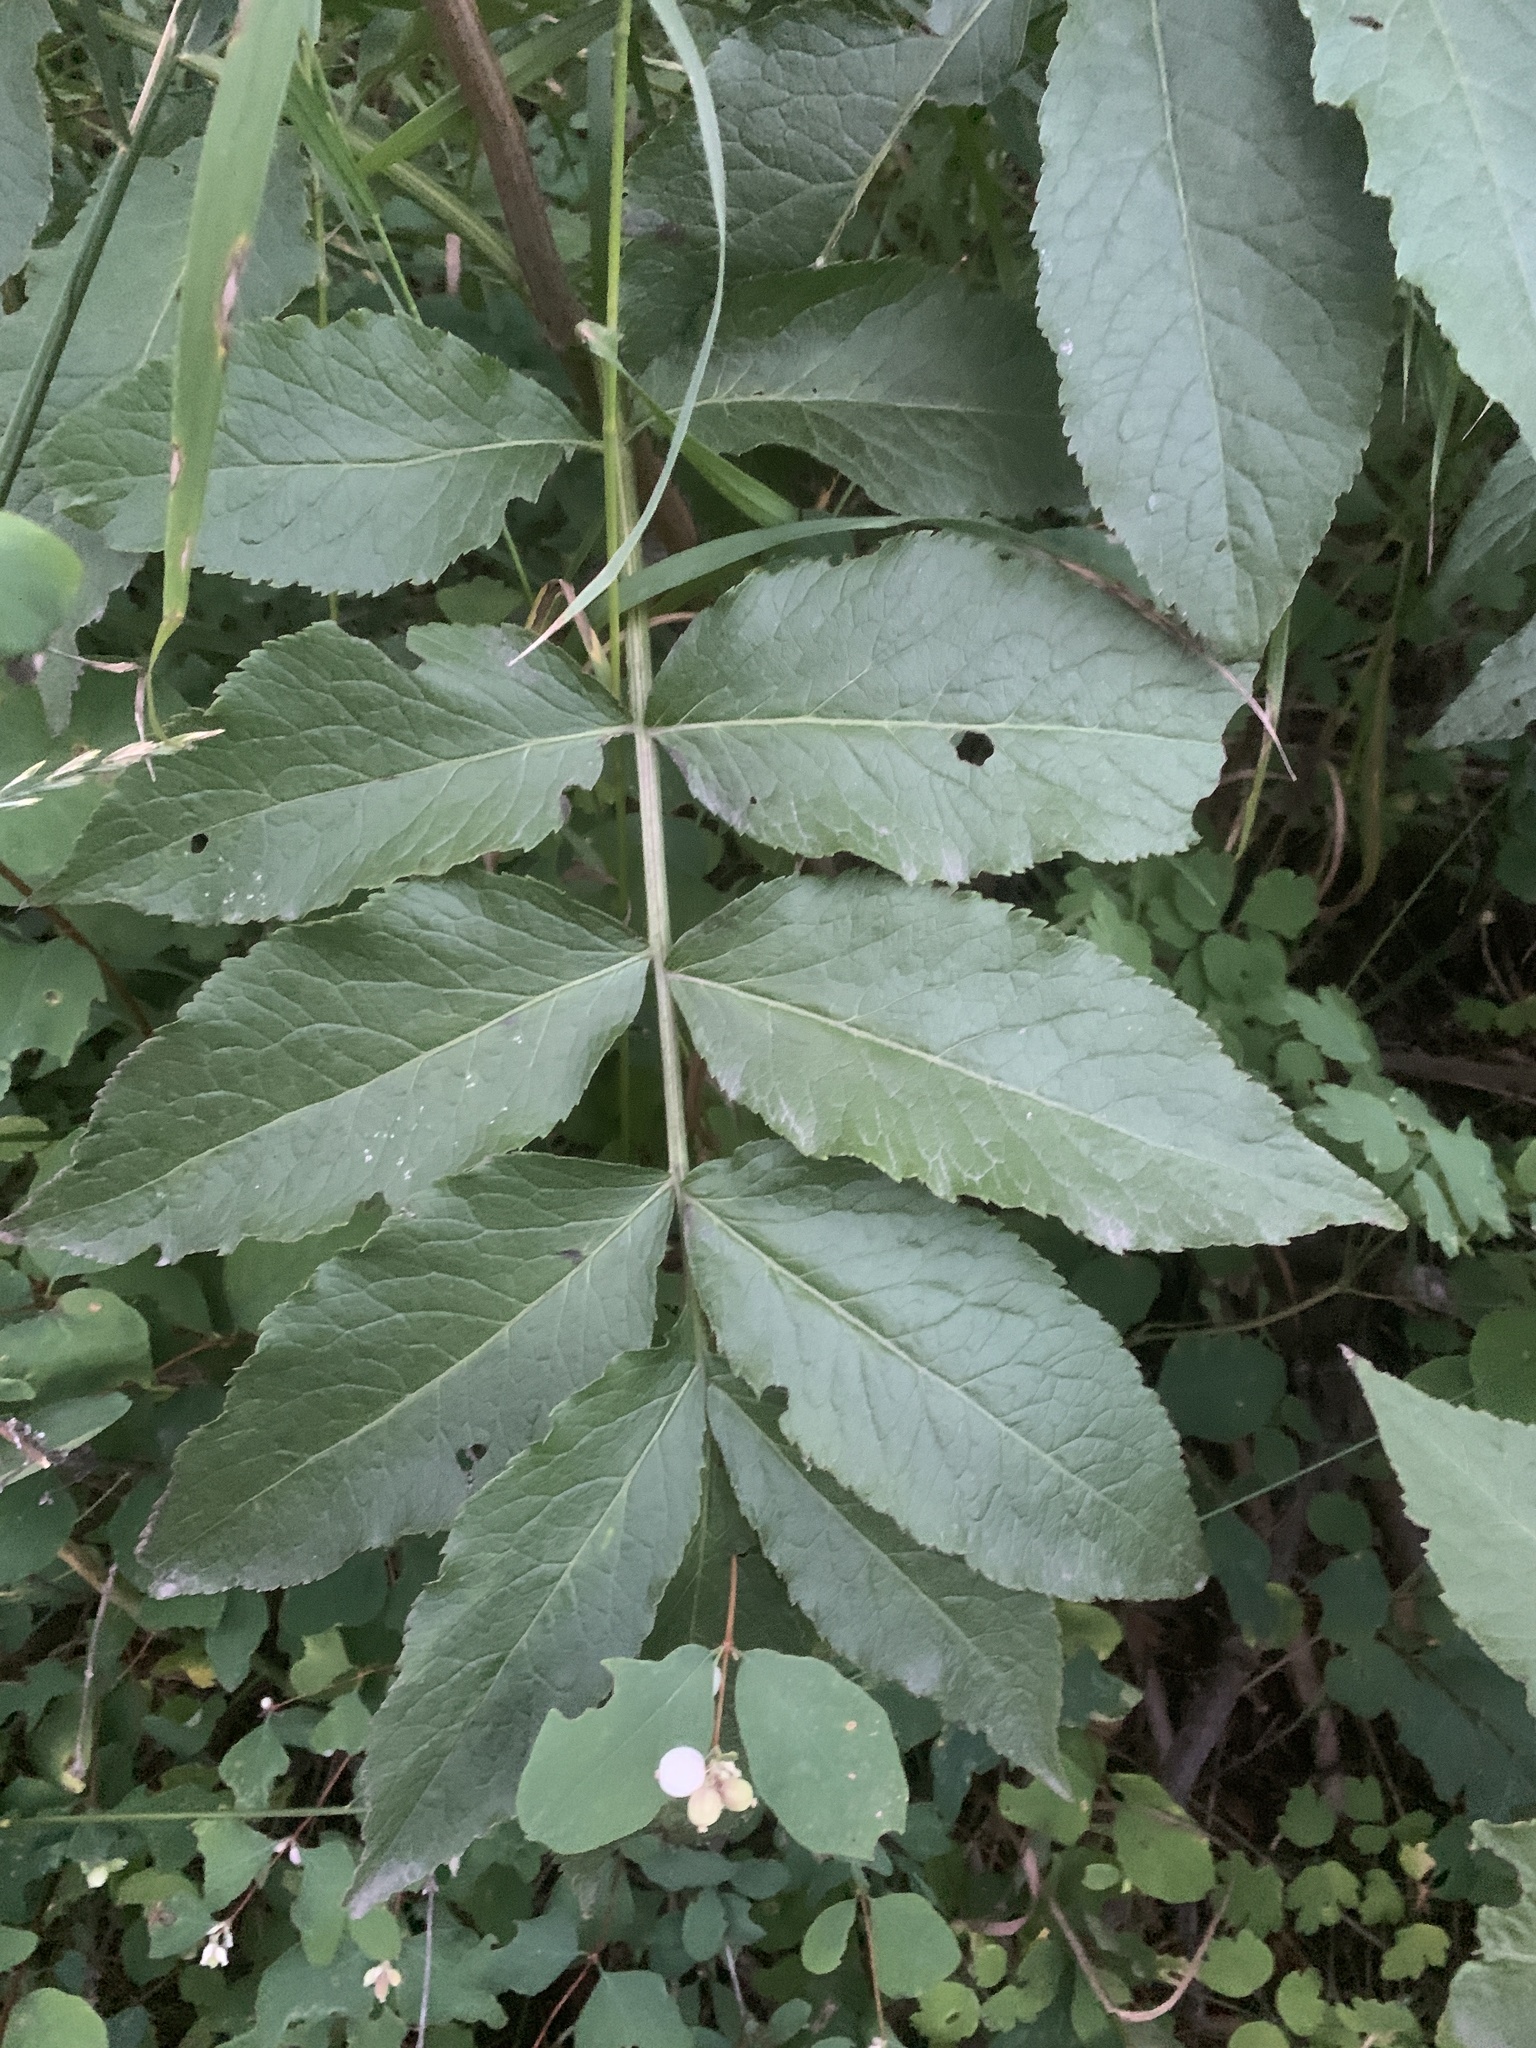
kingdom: Plantae
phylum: Tracheophyta
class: Magnoliopsida
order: Dipsacales
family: Viburnaceae
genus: Sambucus
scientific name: Sambucus racemosa
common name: Red-berried elder
